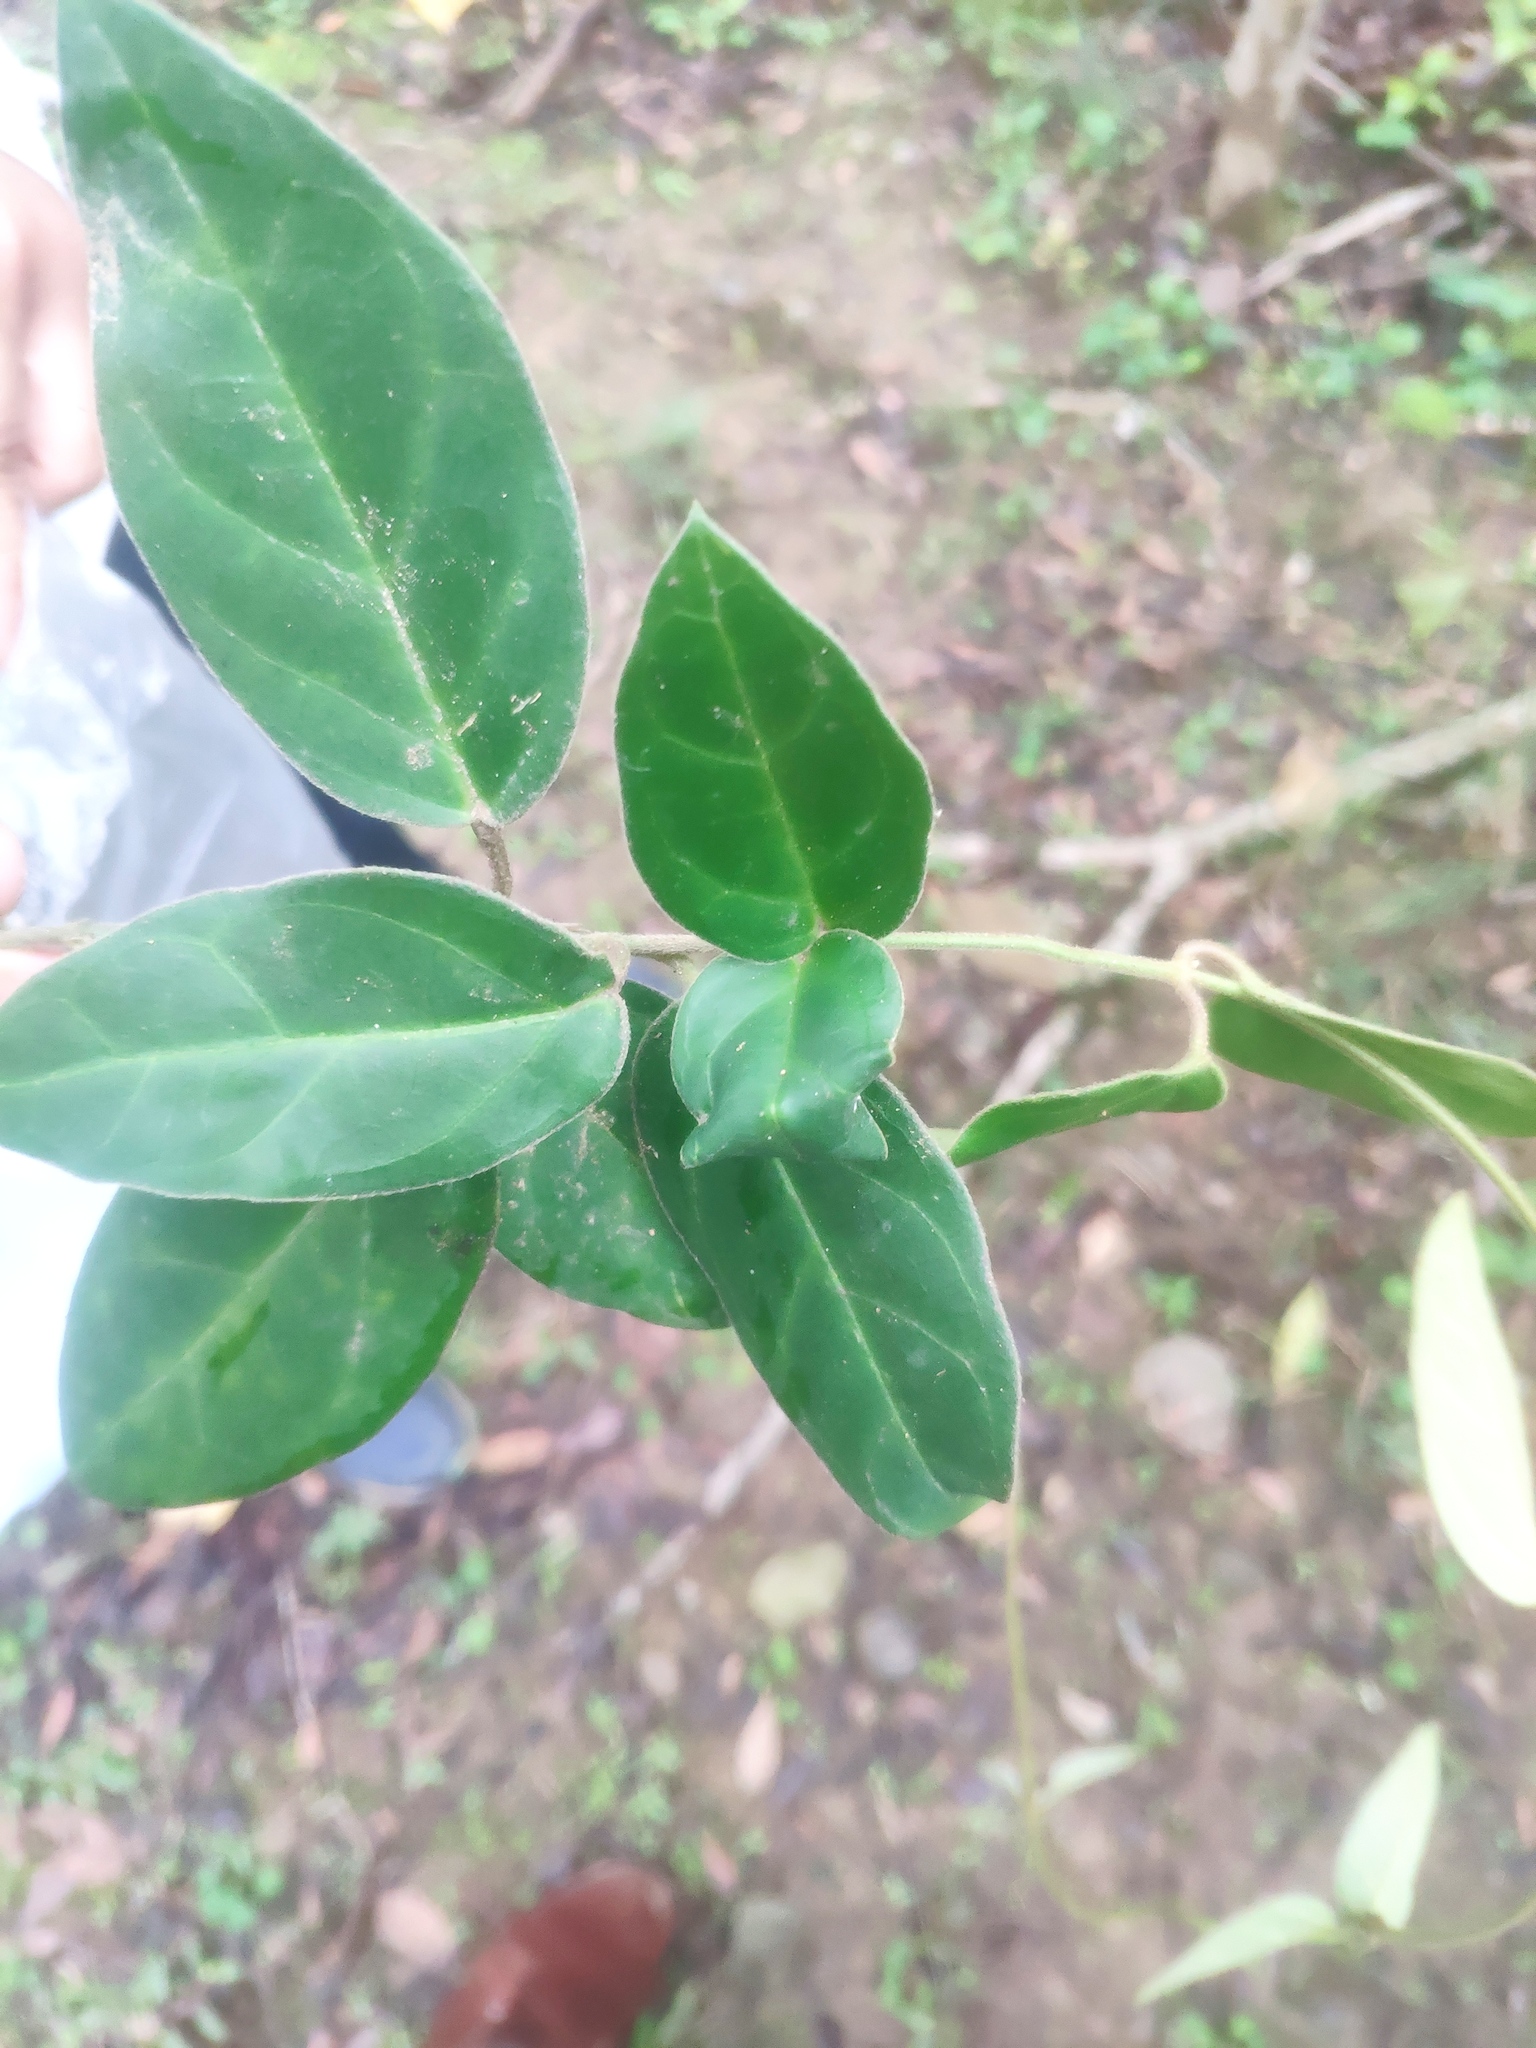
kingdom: Plantae
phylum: Tracheophyta
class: Magnoliopsida
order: Gentianales
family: Apocynaceae
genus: Vincetoxicum
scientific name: Vincetoxicum hirsutum
